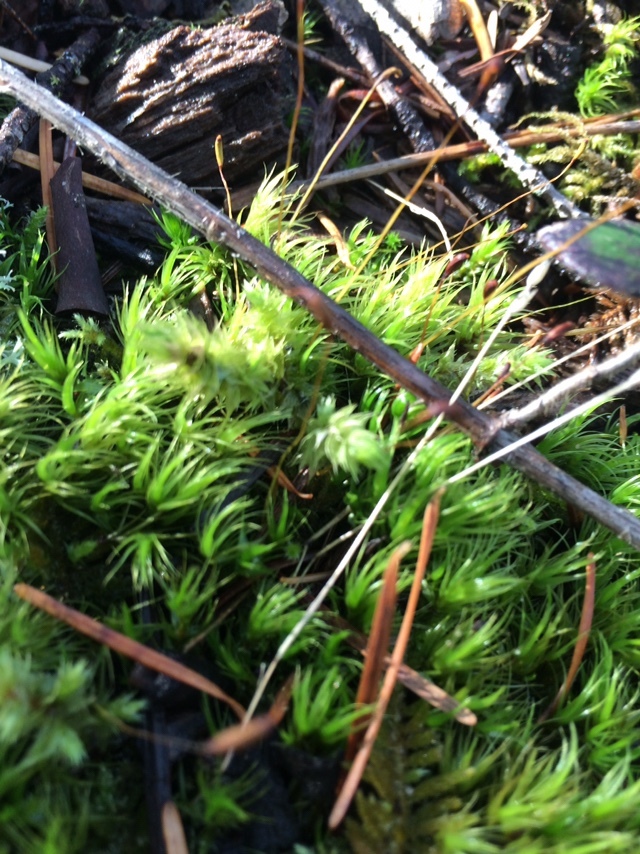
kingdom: Plantae
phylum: Bryophyta
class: Bryopsida
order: Dicranales
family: Dicranaceae
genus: Dicranum
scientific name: Dicranum scoparium
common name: Broom fork-moss
